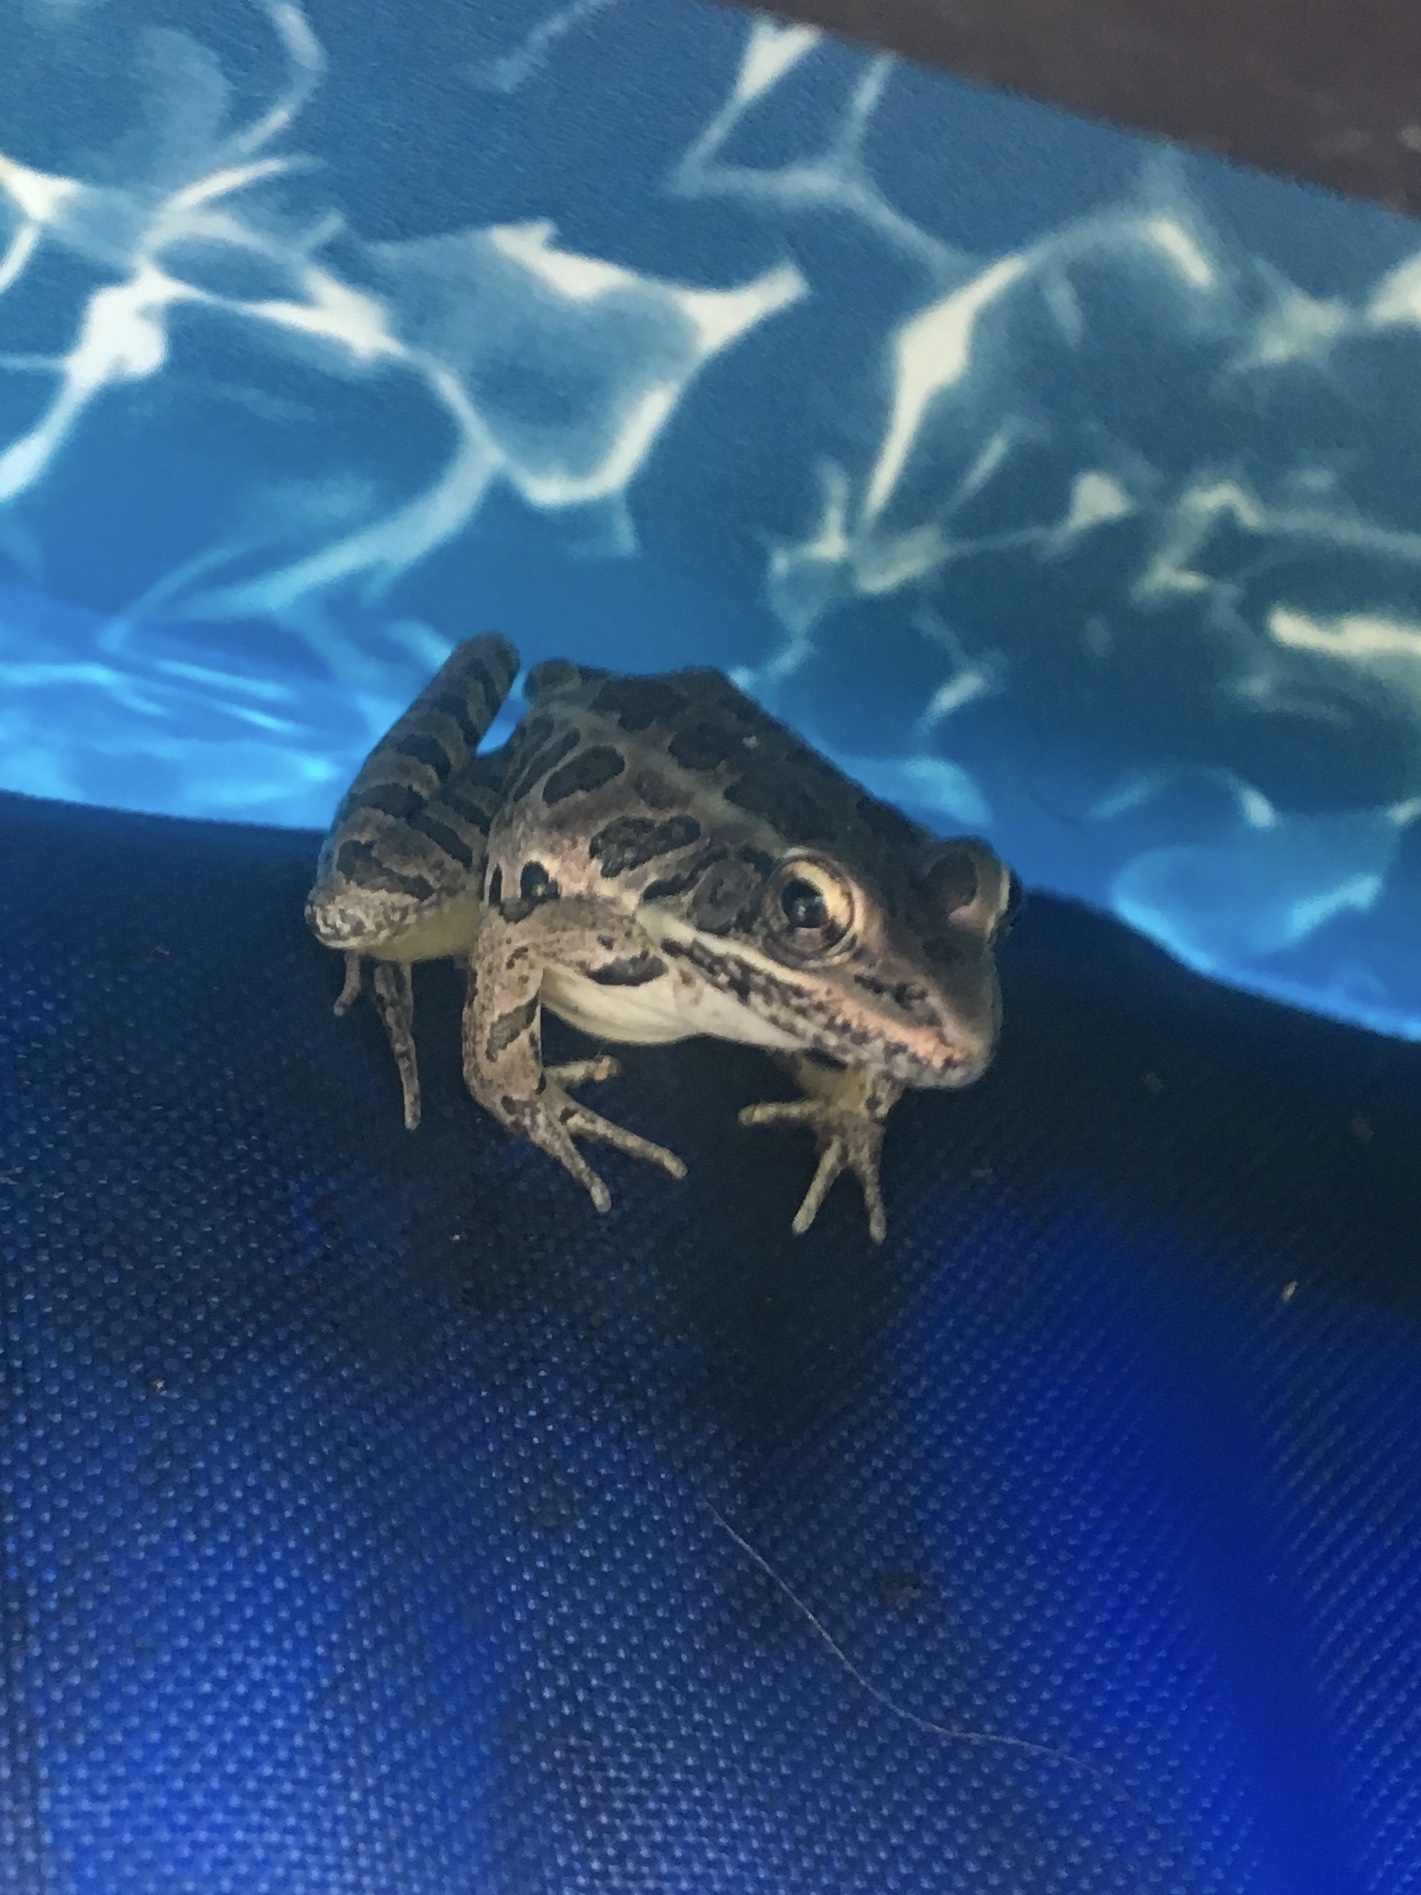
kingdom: Animalia
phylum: Chordata
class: Amphibia
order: Anura
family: Ranidae
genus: Lithobates
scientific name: Lithobates palustris
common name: Pickerel frog
